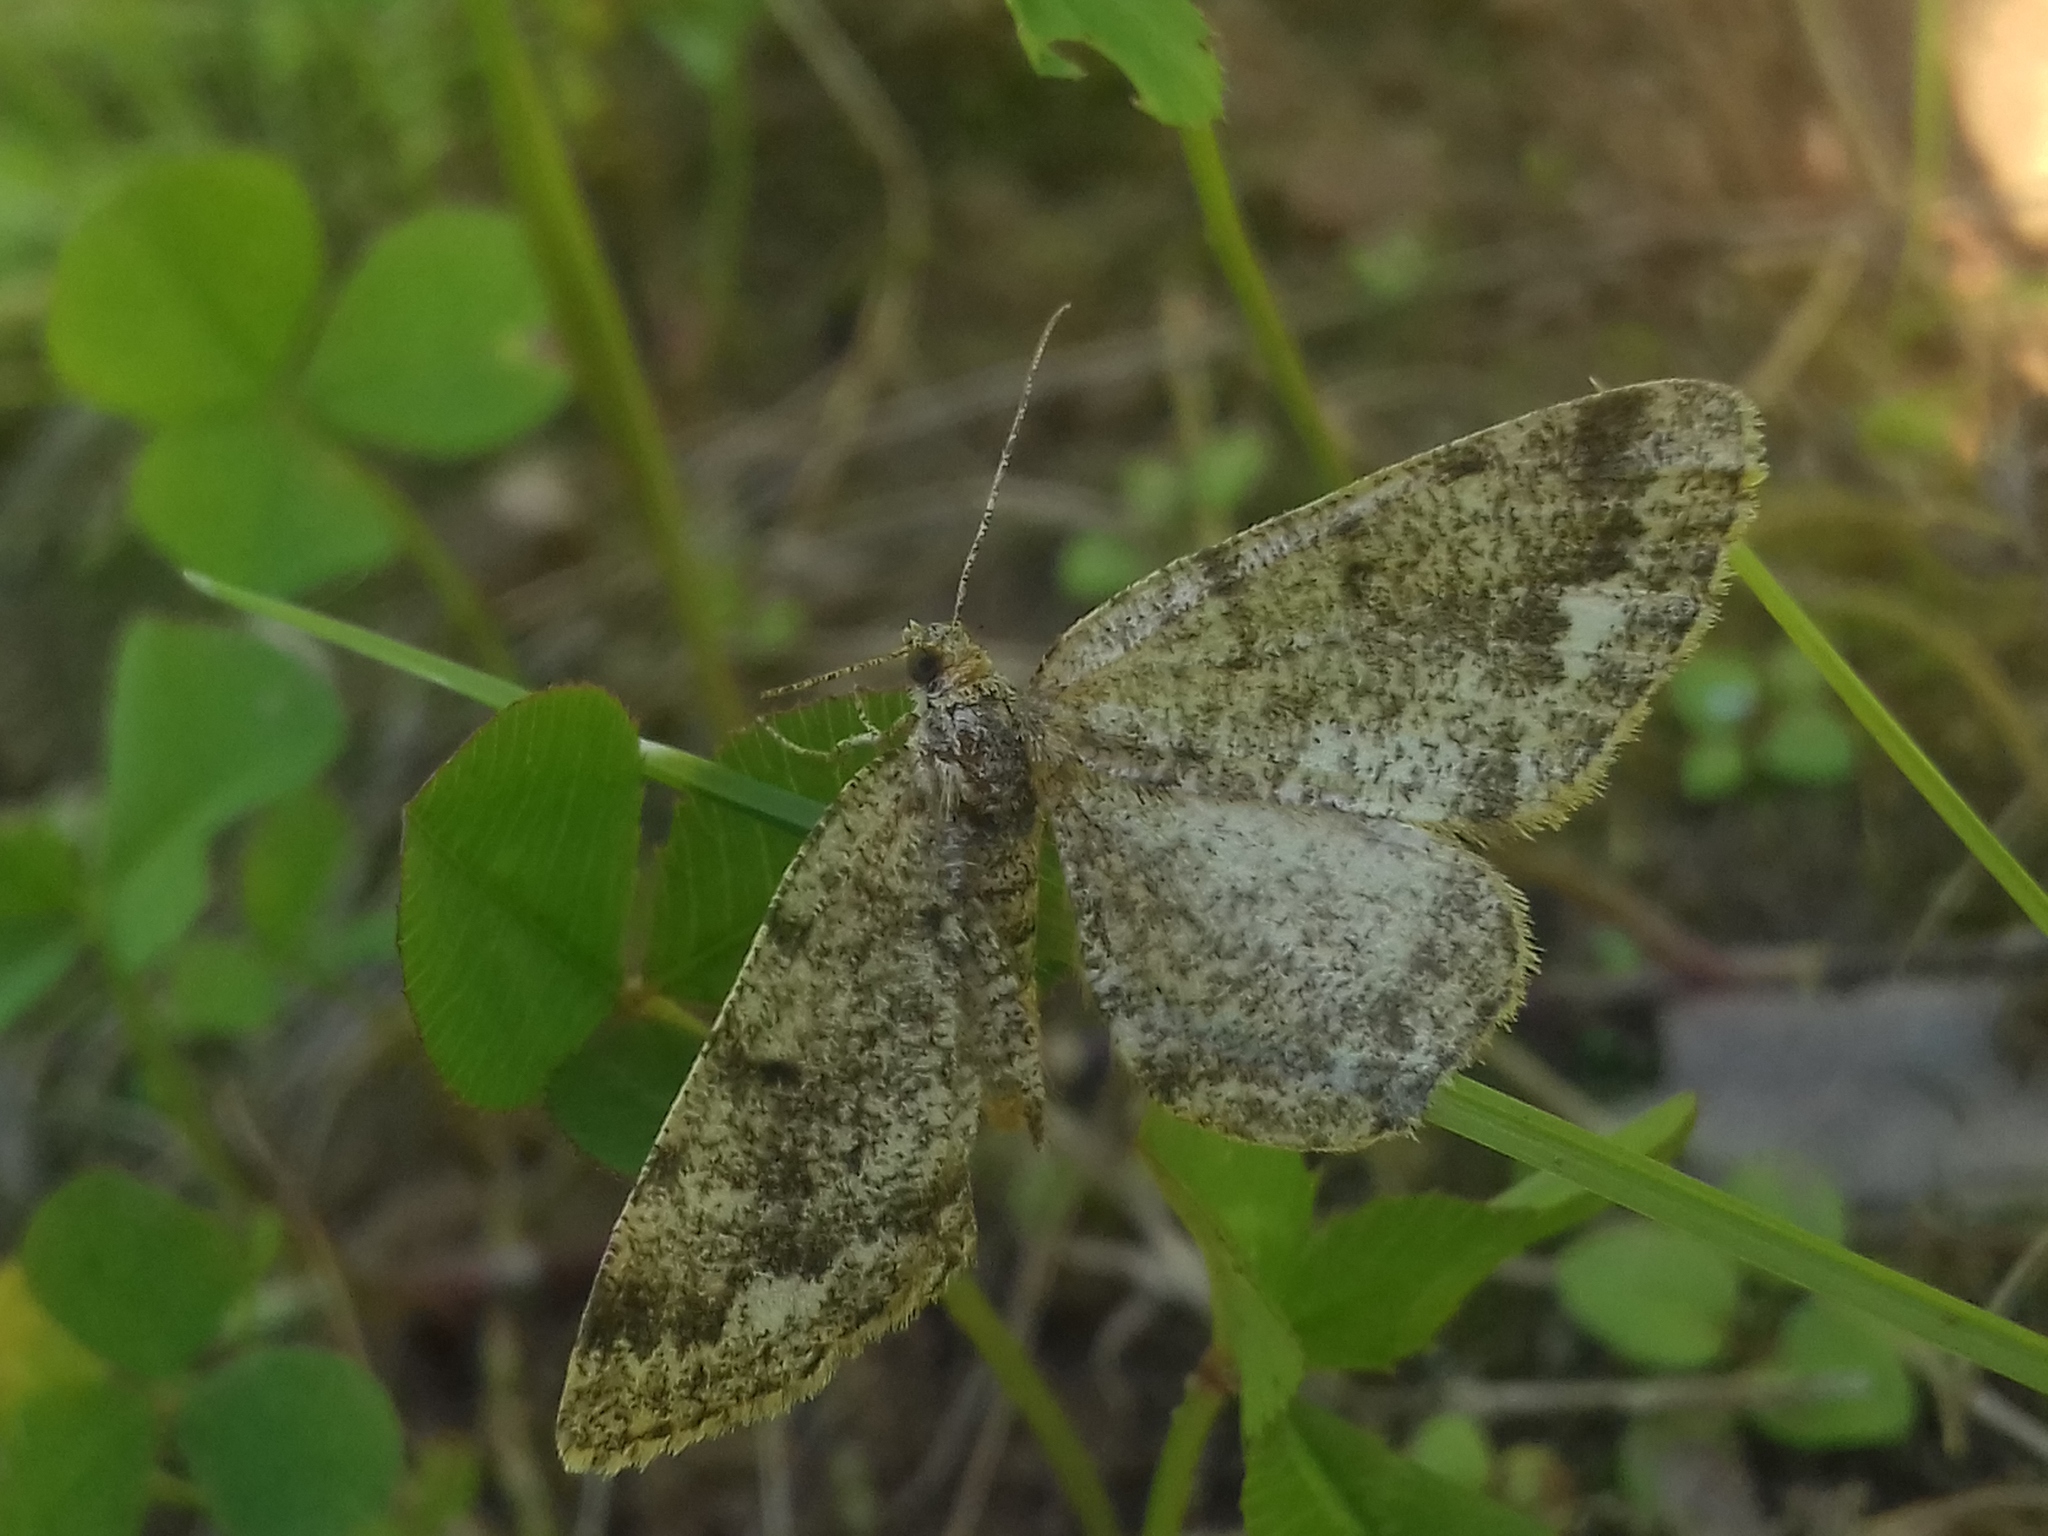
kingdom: Animalia
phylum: Arthropoda
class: Insecta
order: Lepidoptera
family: Geometridae
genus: Parectropis
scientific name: Parectropis similaria
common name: Brindled white-spot
